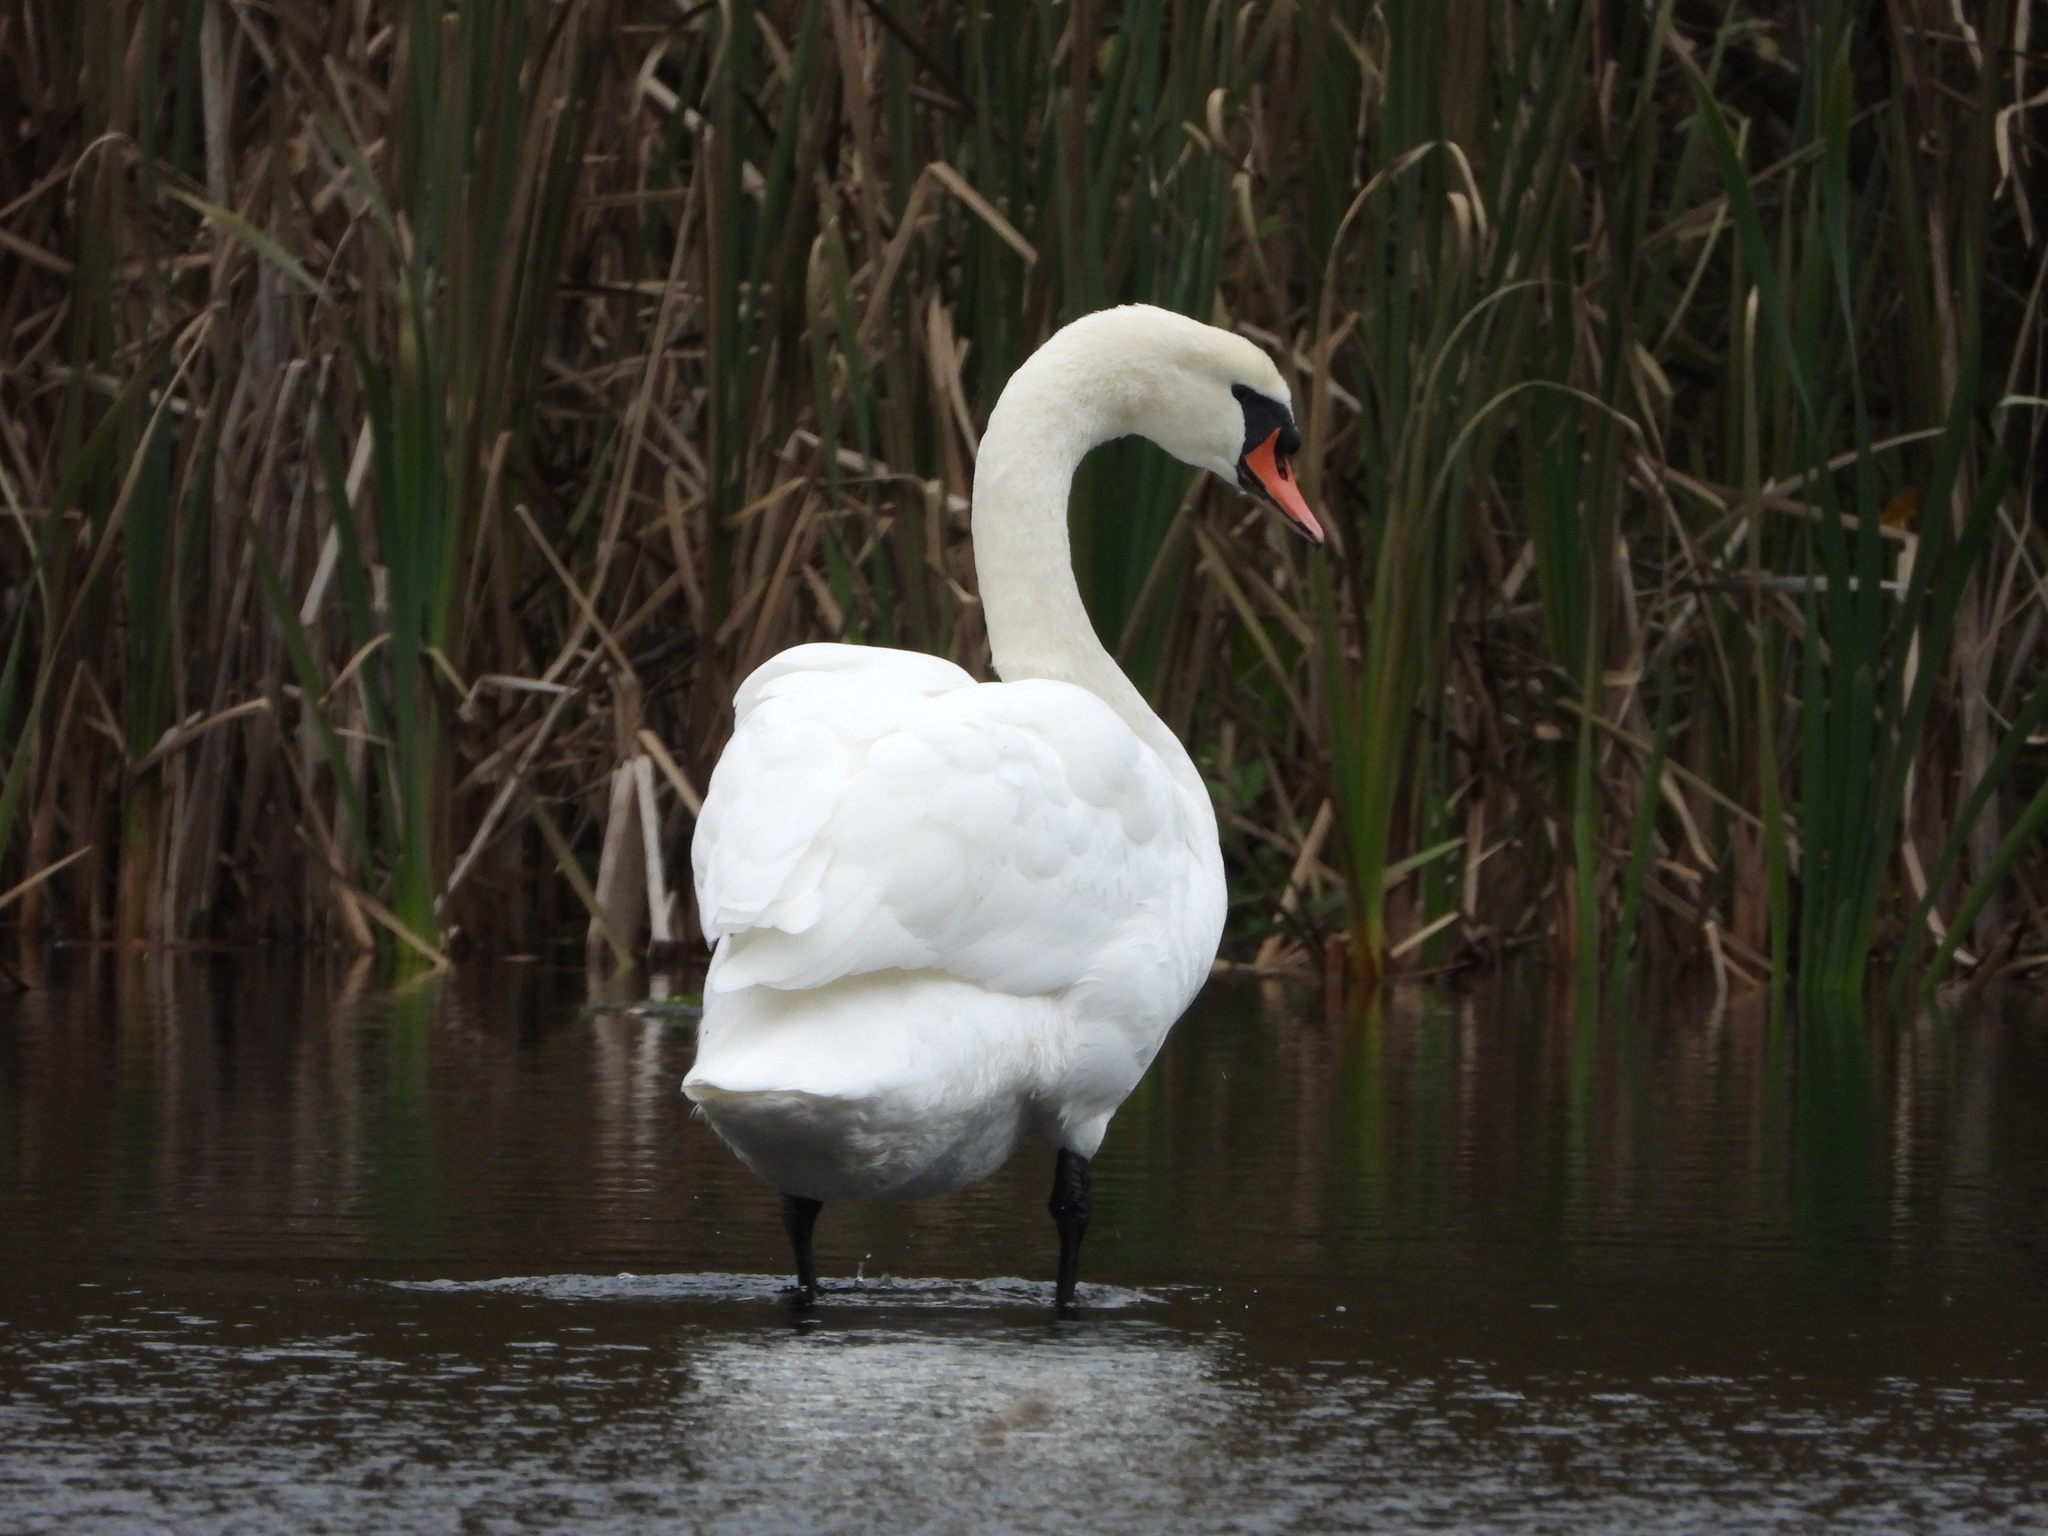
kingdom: Animalia
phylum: Chordata
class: Aves
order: Anseriformes
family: Anatidae
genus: Cygnus
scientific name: Cygnus olor
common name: Mute swan
